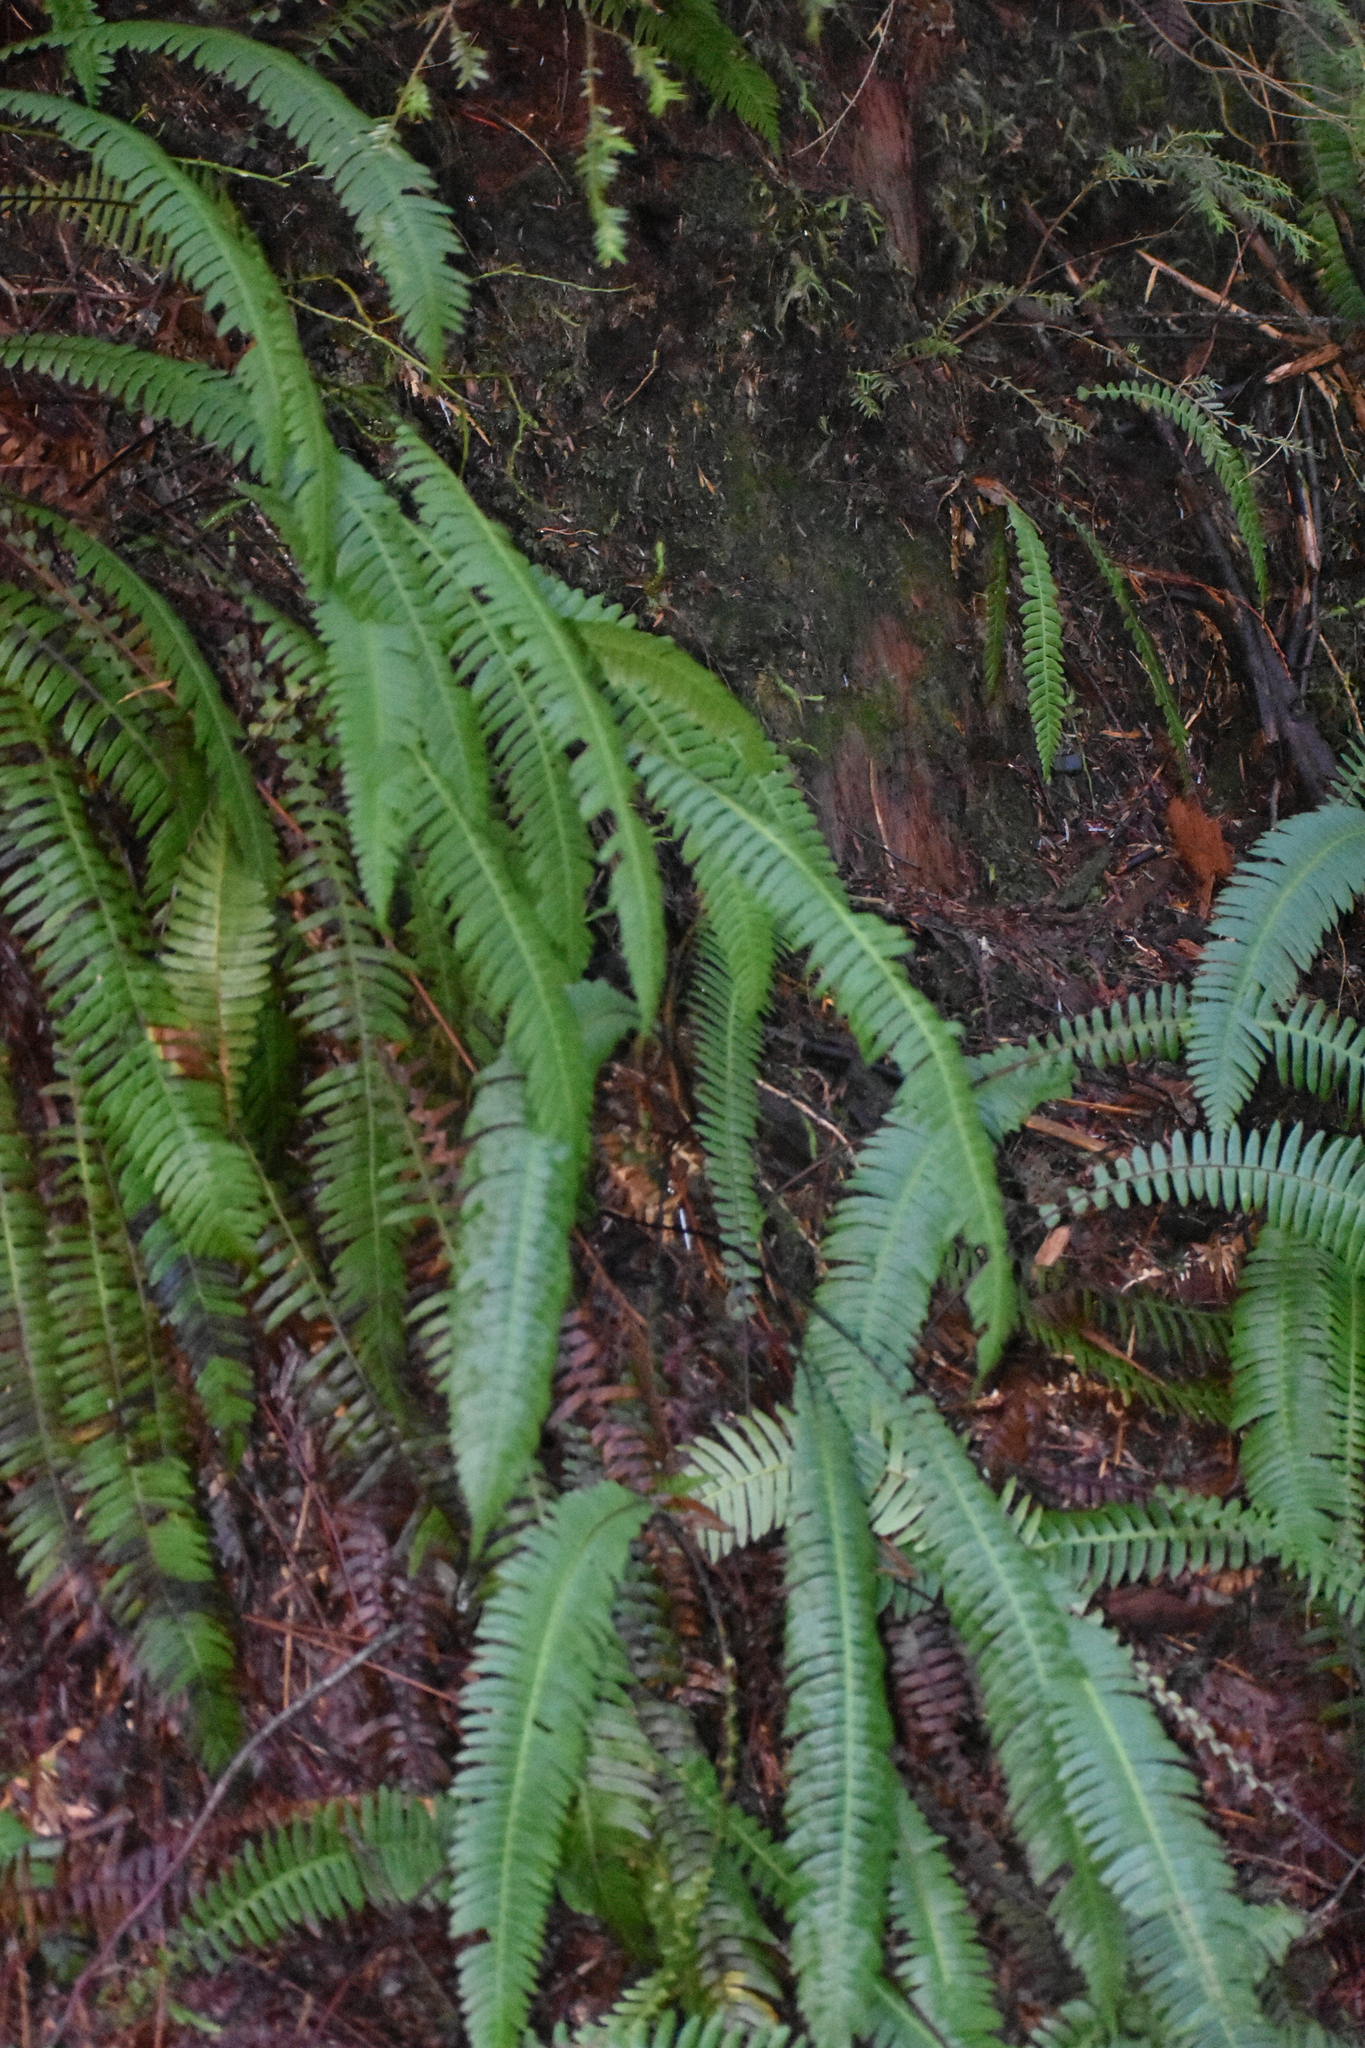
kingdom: Plantae
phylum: Tracheophyta
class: Polypodiopsida
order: Polypodiales
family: Blechnaceae
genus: Struthiopteris
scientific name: Struthiopteris spicant
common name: Deer fern
